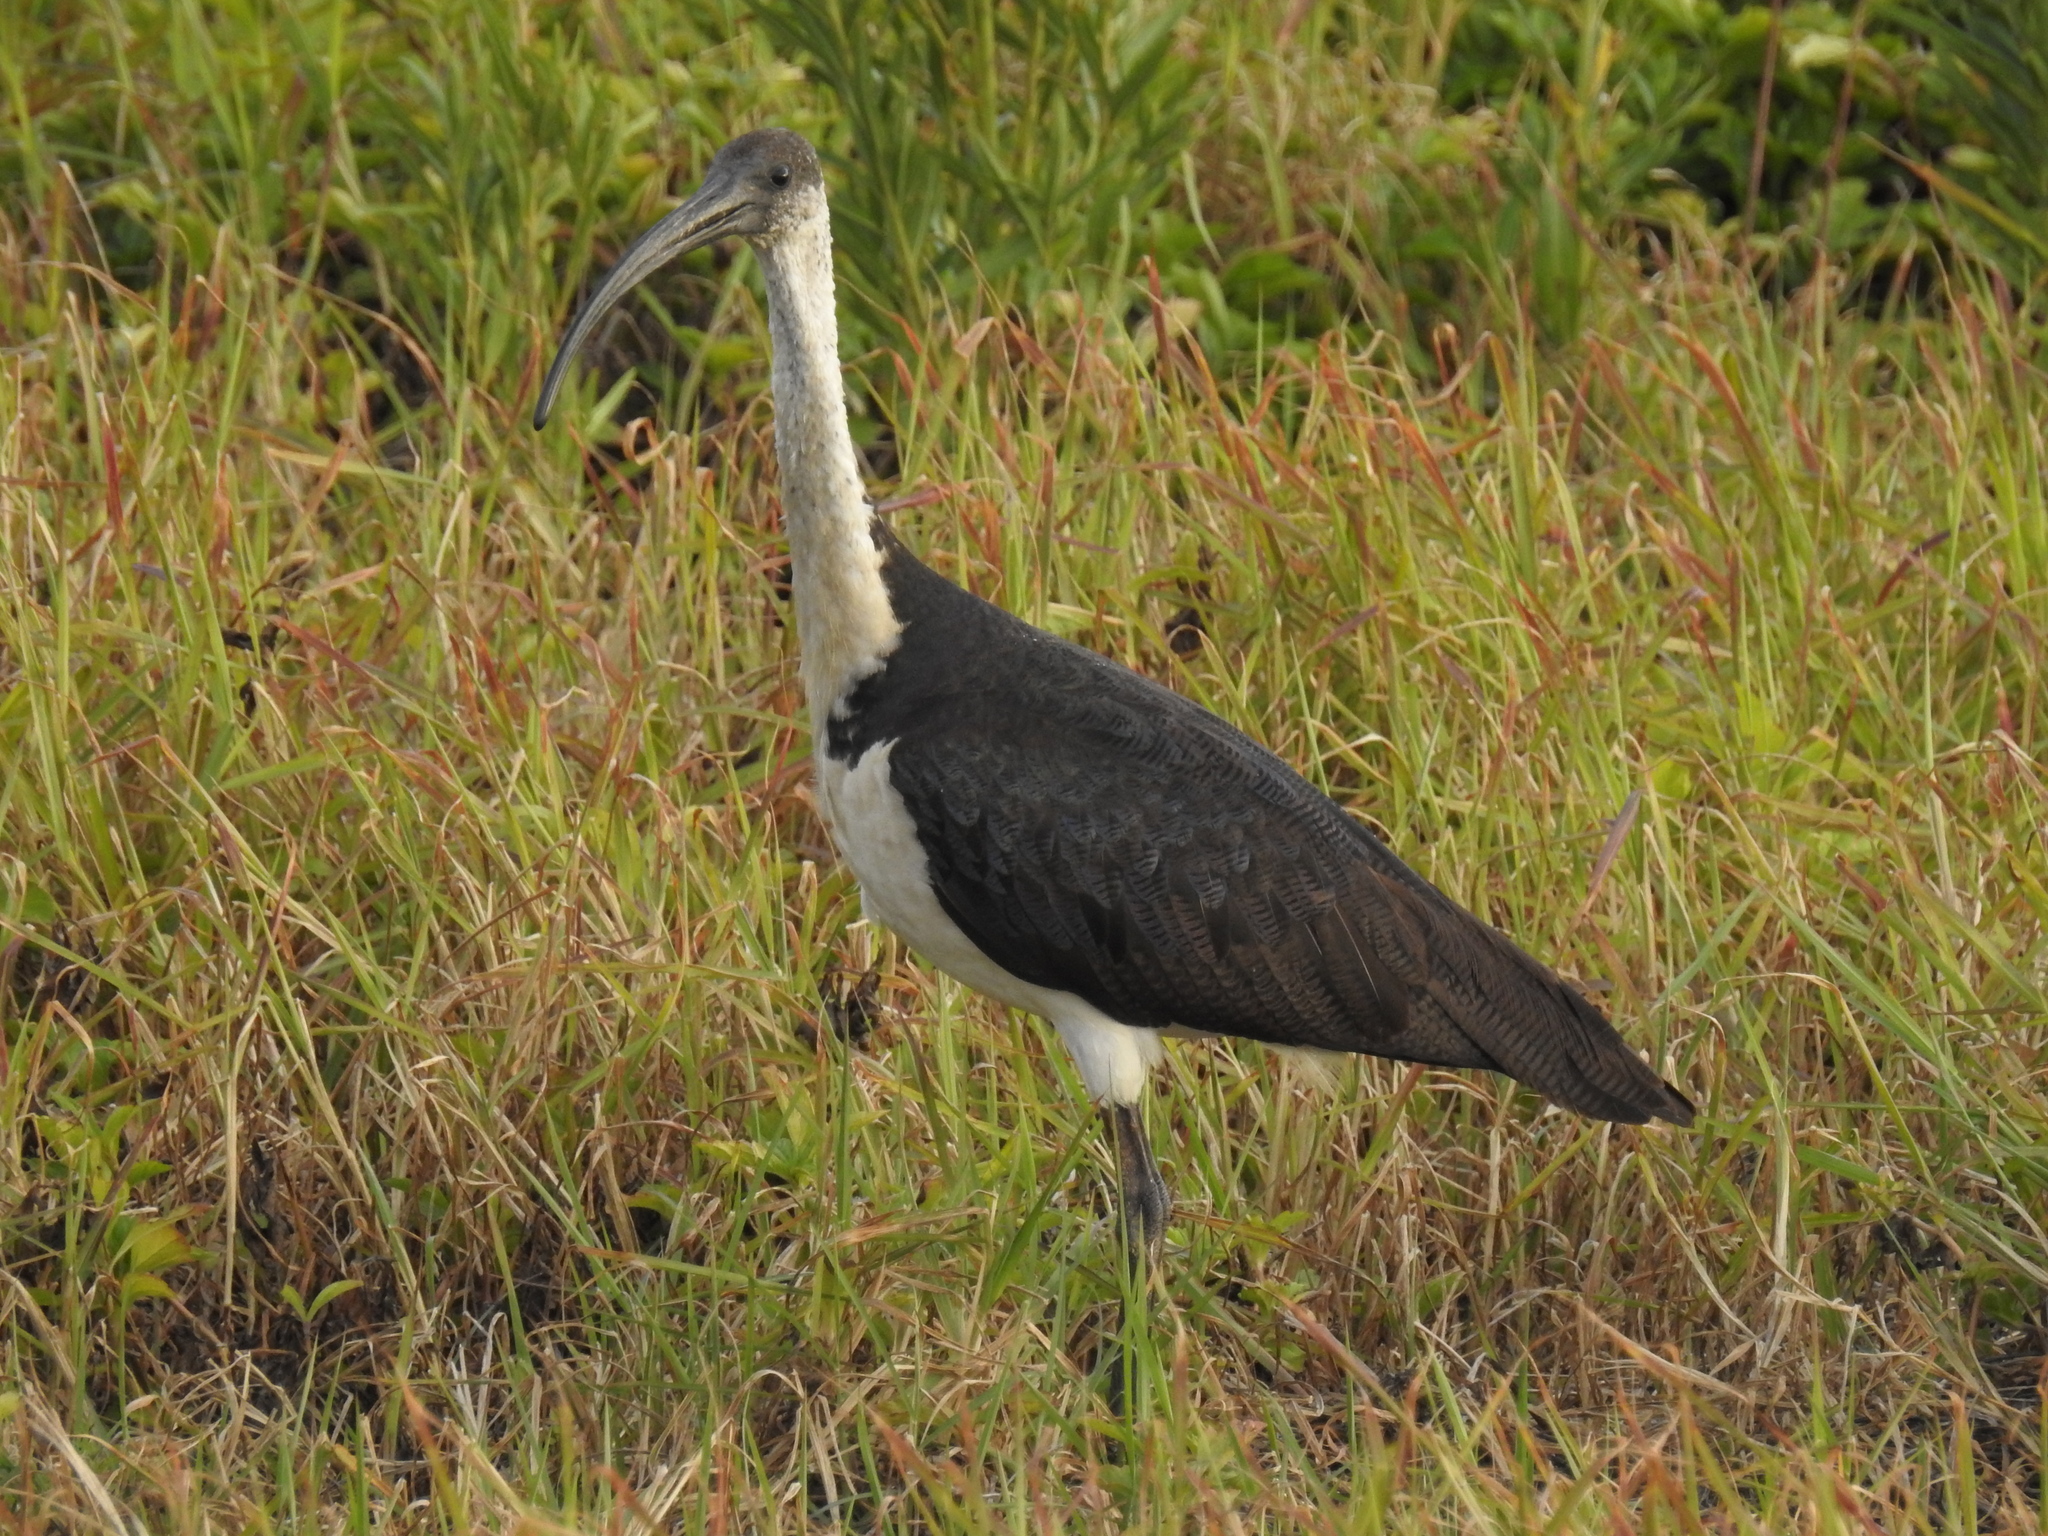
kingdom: Animalia
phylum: Chordata
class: Aves
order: Pelecaniformes
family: Threskiornithidae
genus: Threskiornis
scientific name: Threskiornis spinicollis
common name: Straw-necked ibis
